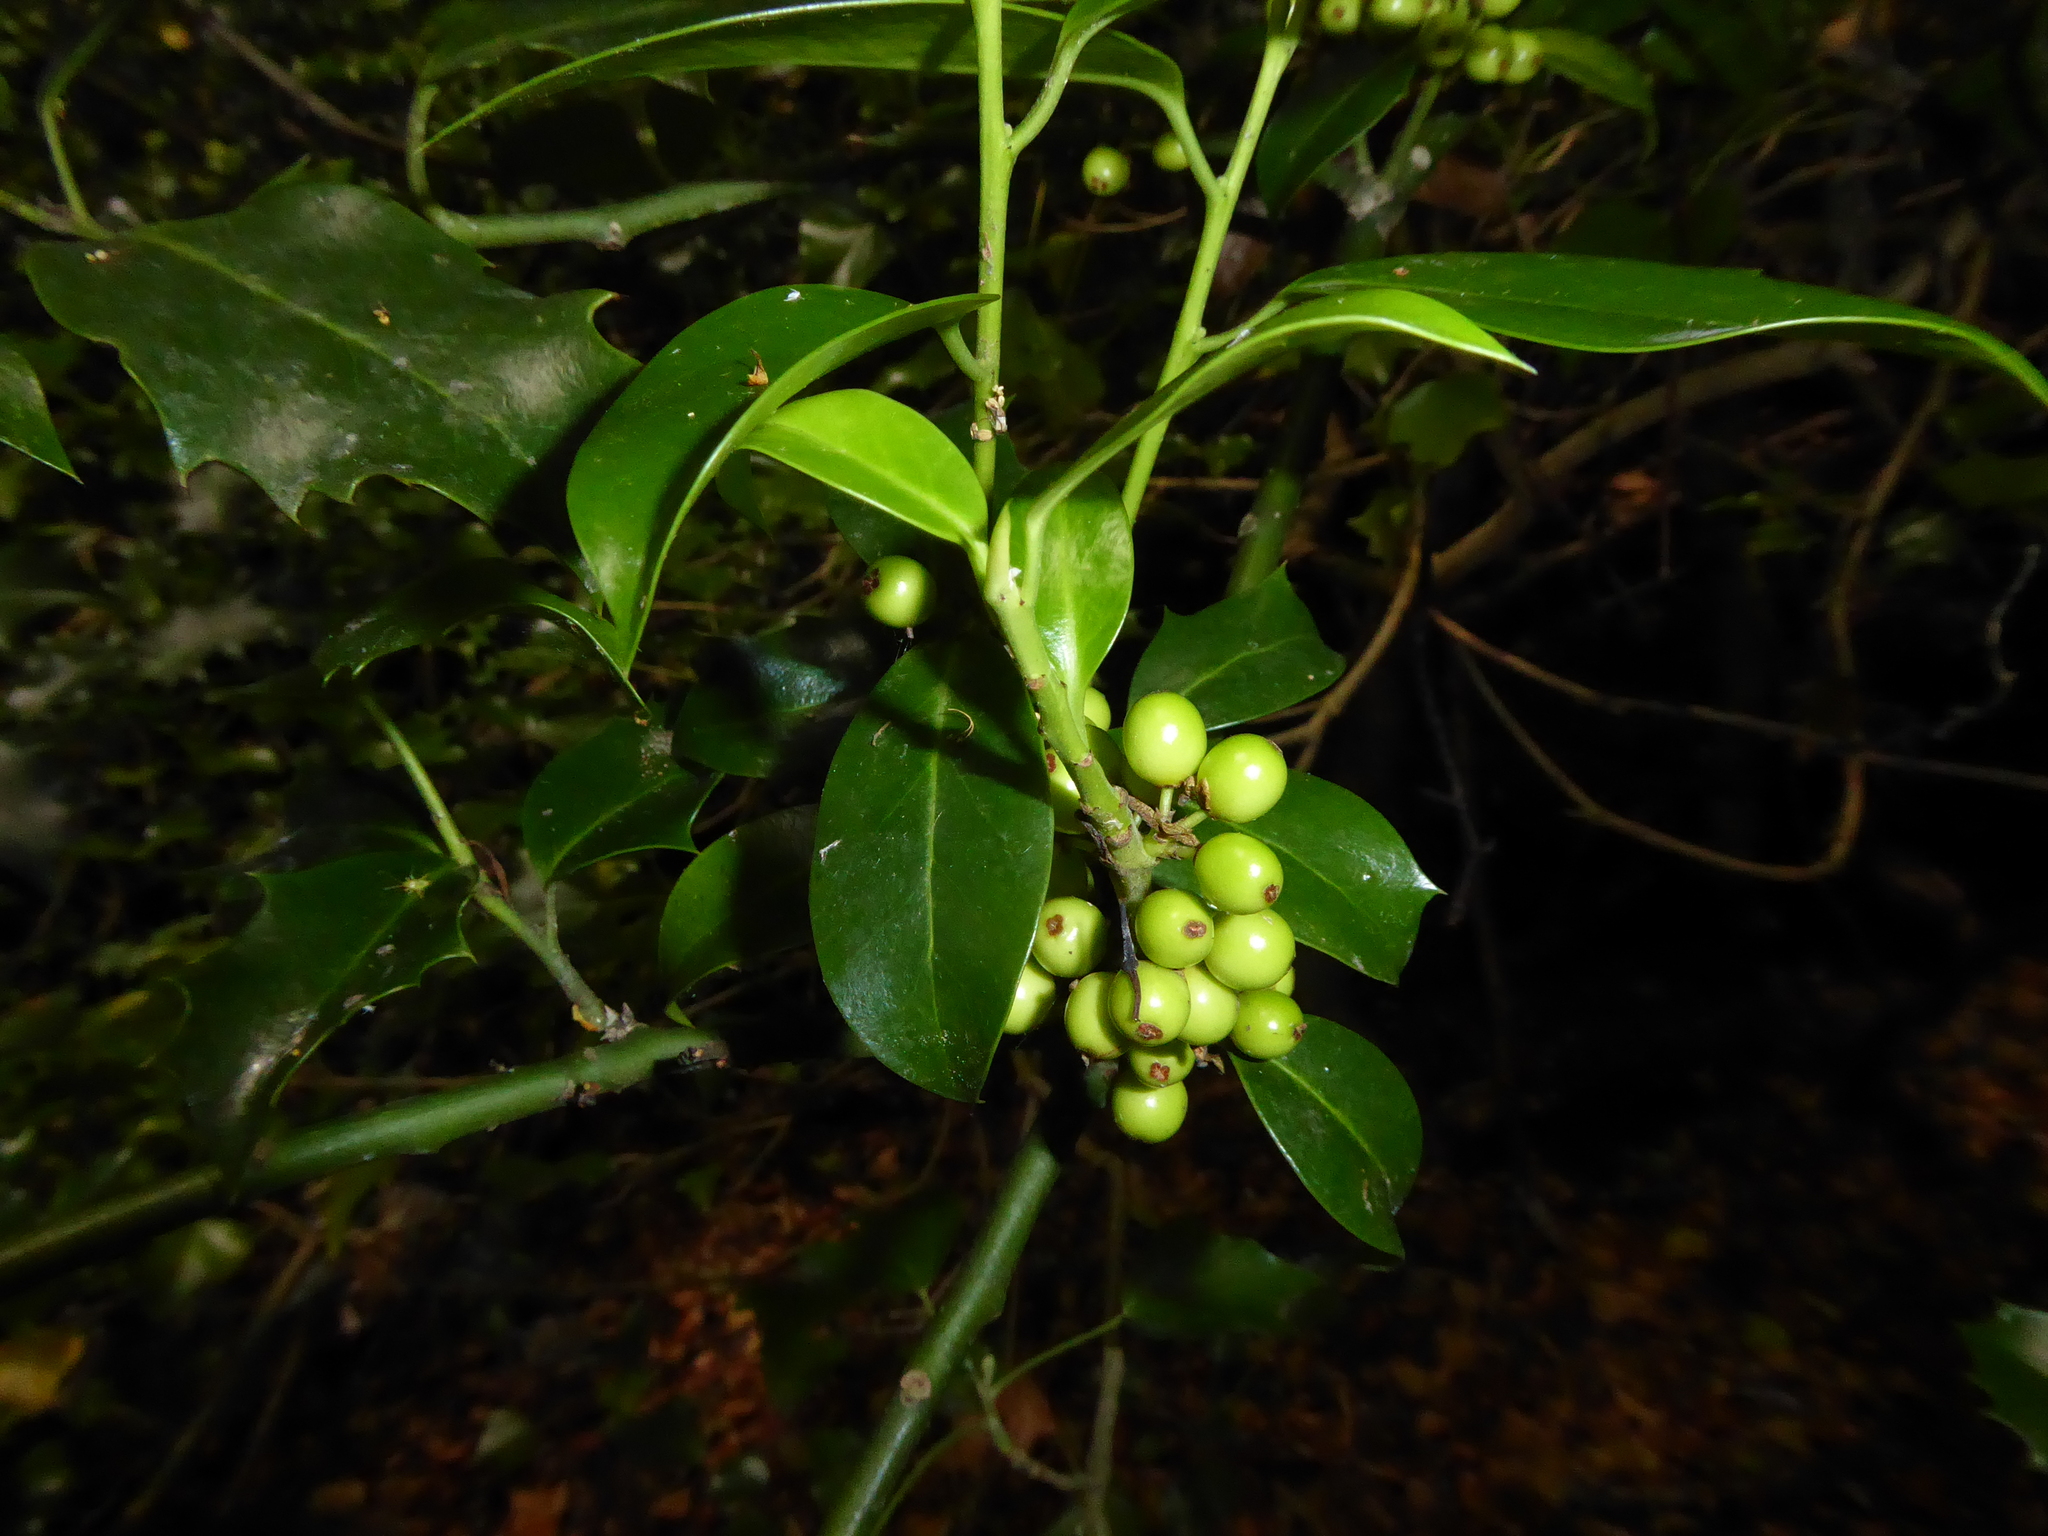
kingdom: Plantae
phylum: Tracheophyta
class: Magnoliopsida
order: Aquifoliales
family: Aquifoliaceae
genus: Ilex
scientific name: Ilex aquifolium
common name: English holly
